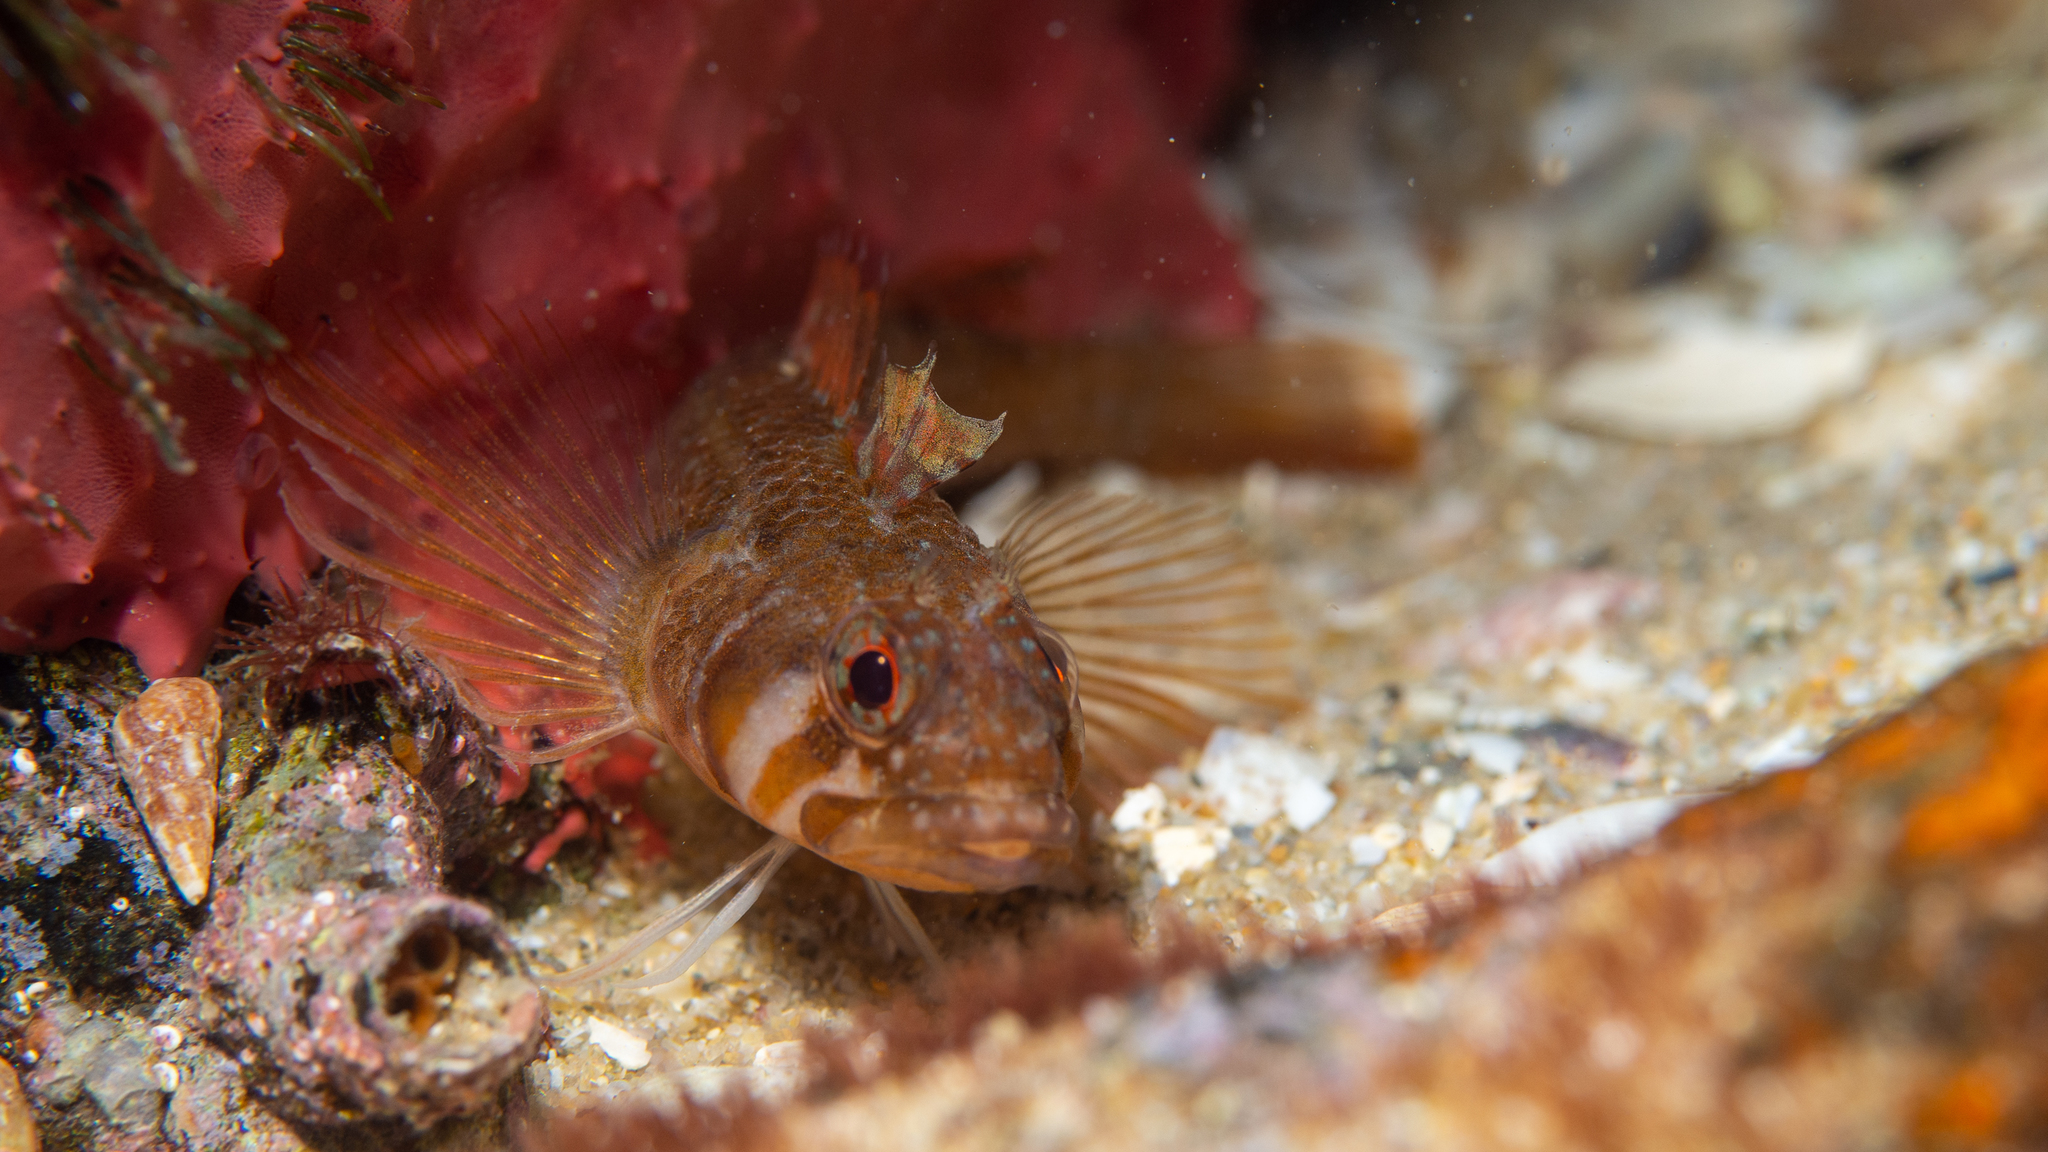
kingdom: Animalia
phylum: Chordata
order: Perciformes
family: Tripterygiidae
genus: Trinorfolkia
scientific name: Trinorfolkia clarkei
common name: Clarke's triplefin
